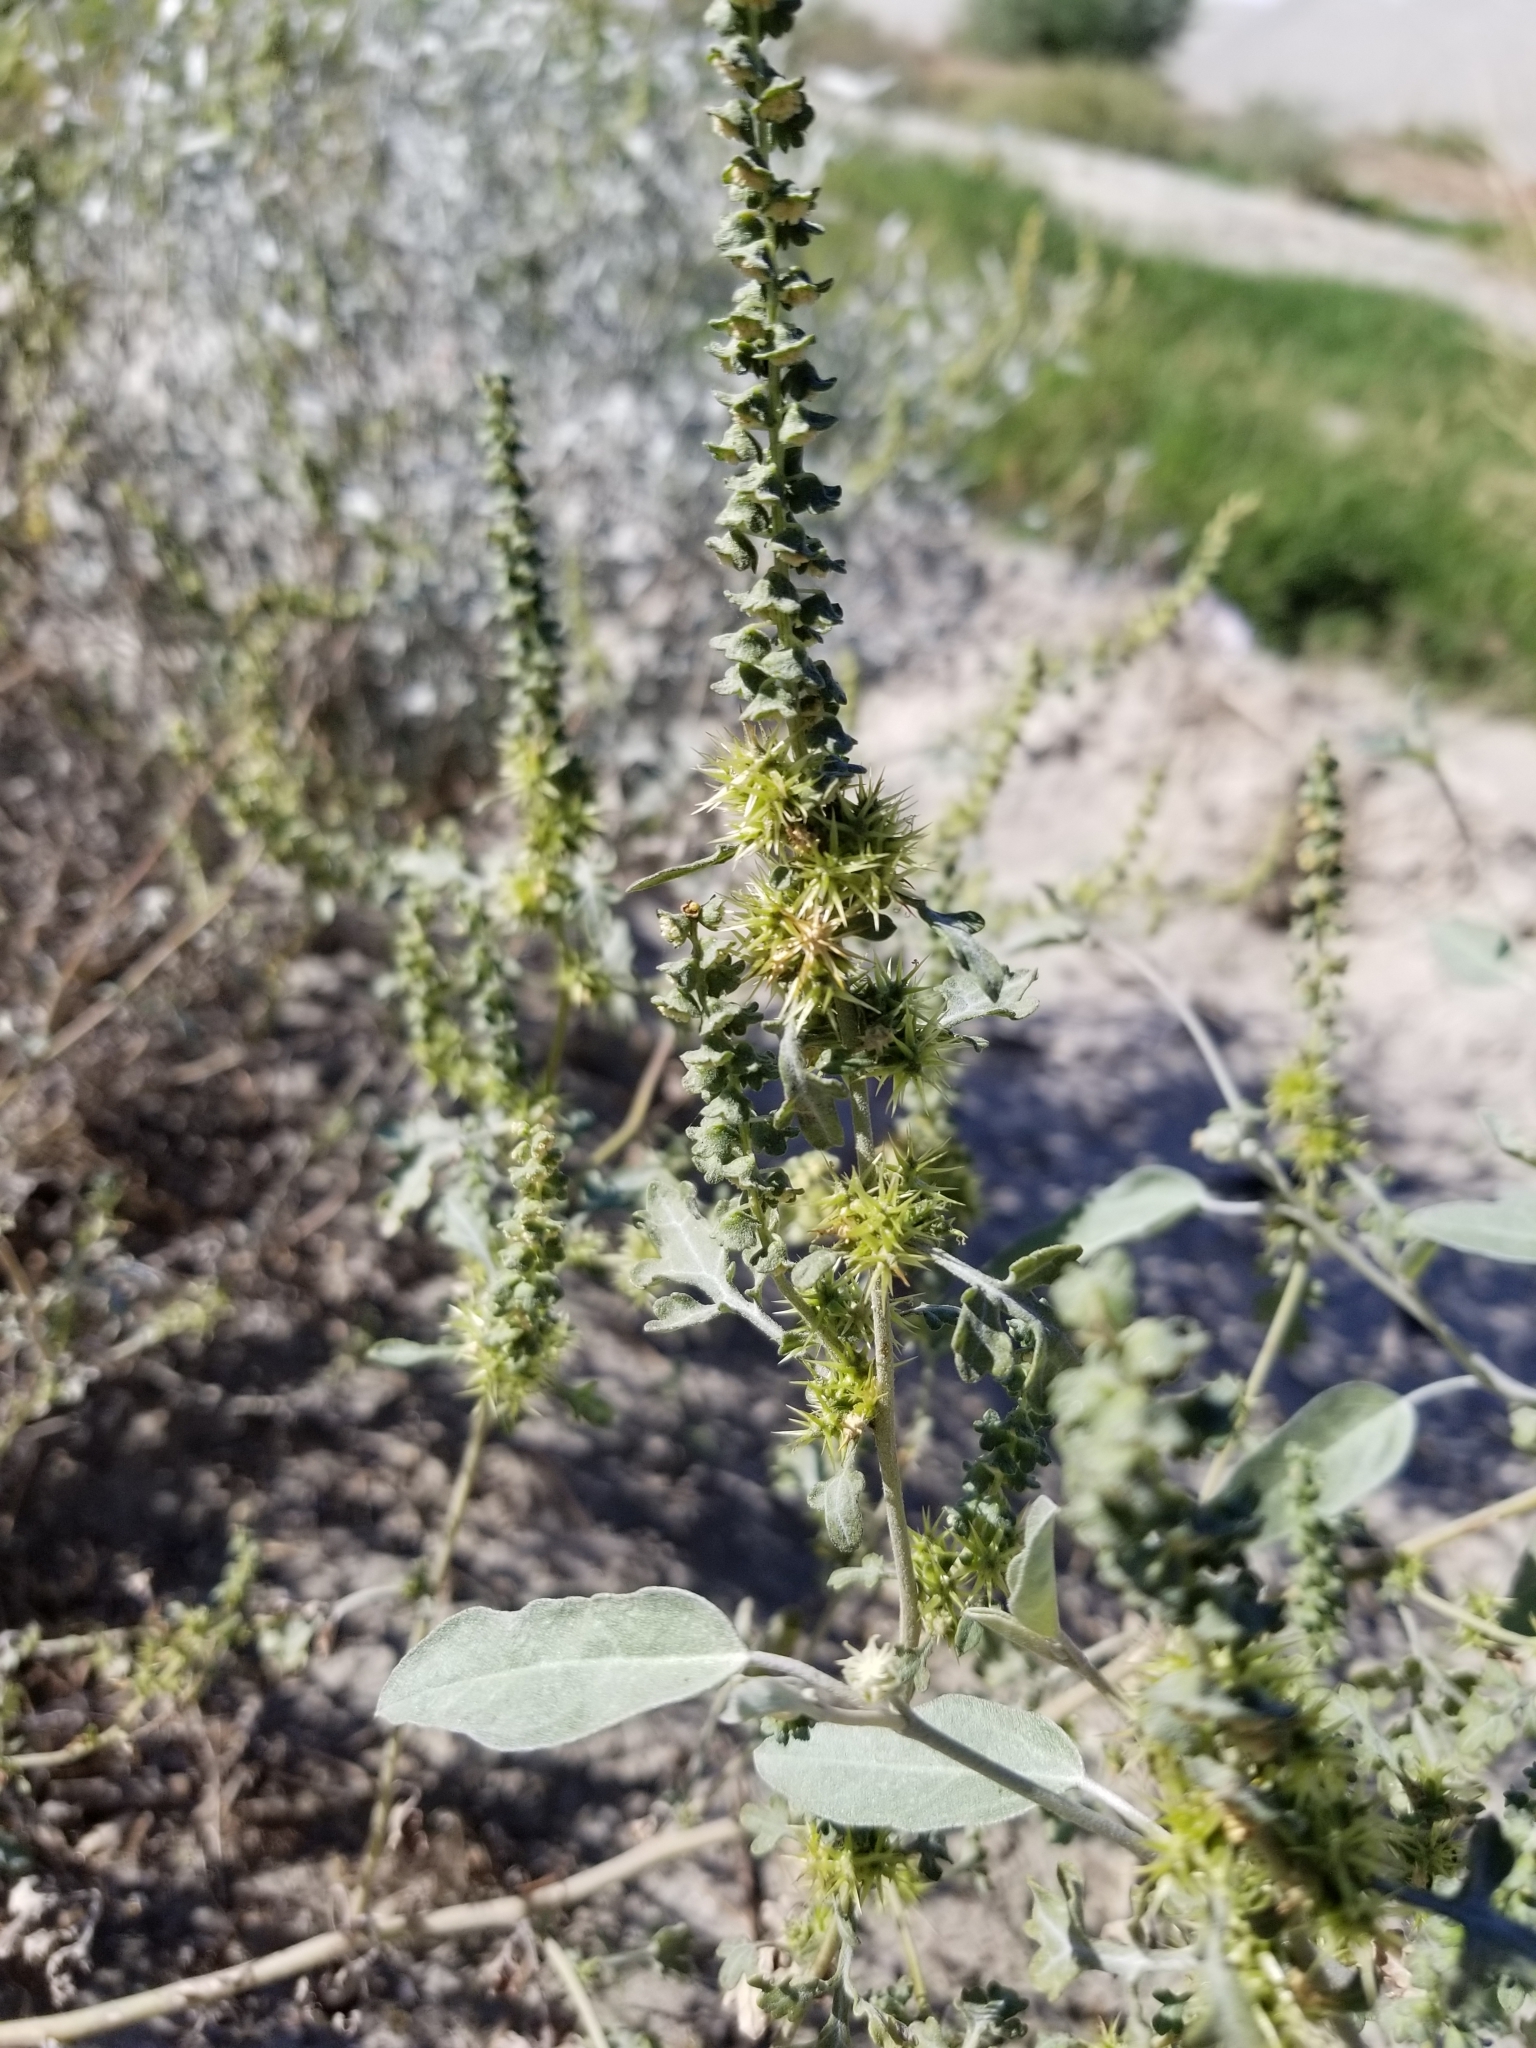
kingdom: Plantae
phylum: Tracheophyta
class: Magnoliopsida
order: Asterales
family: Asteraceae
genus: Ambrosia
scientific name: Ambrosia acanthicarpa
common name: Hooker's bur ragweed
